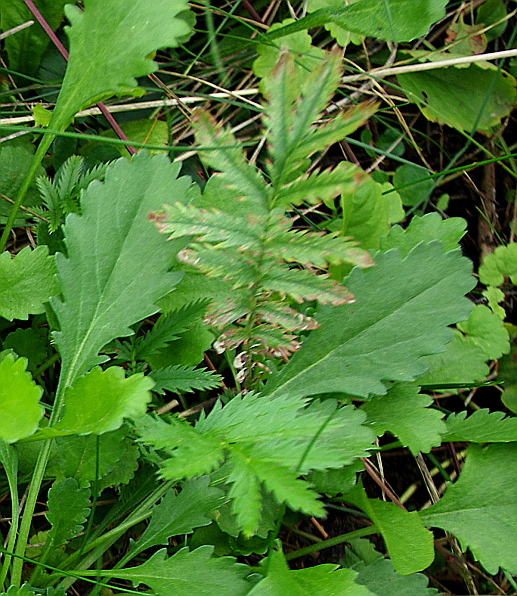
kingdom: Plantae
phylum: Tracheophyta
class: Magnoliopsida
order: Rosales
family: Rosaceae
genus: Argentina
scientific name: Argentina anserina
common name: Common silverweed
